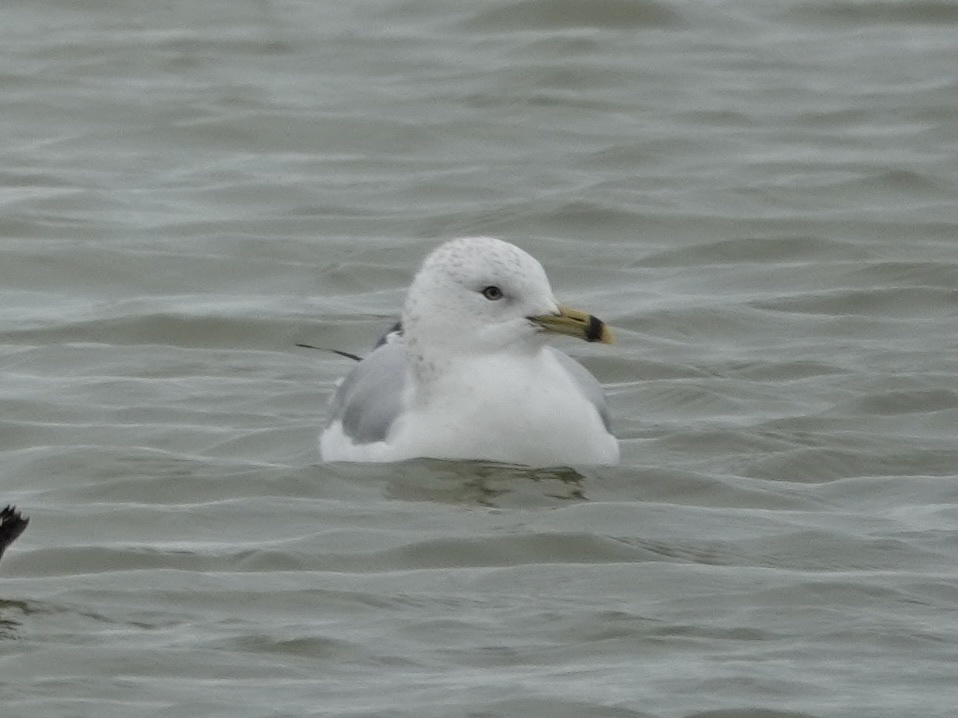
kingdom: Animalia
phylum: Chordata
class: Aves
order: Charadriiformes
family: Laridae
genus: Larus
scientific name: Larus delawarensis
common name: Ring-billed gull
